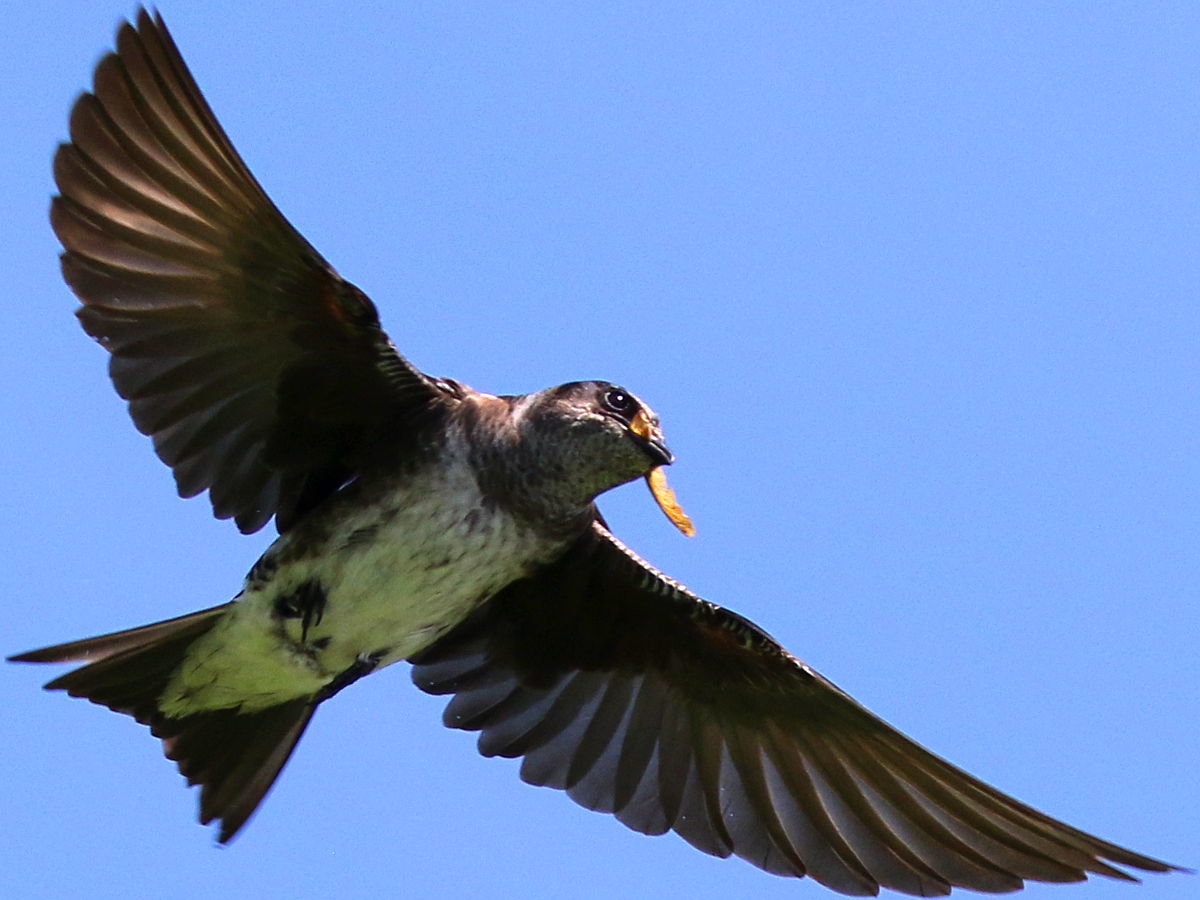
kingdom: Animalia
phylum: Chordata
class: Aves
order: Passeriformes
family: Hirundinidae
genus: Progne
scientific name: Progne subis
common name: Purple martin
